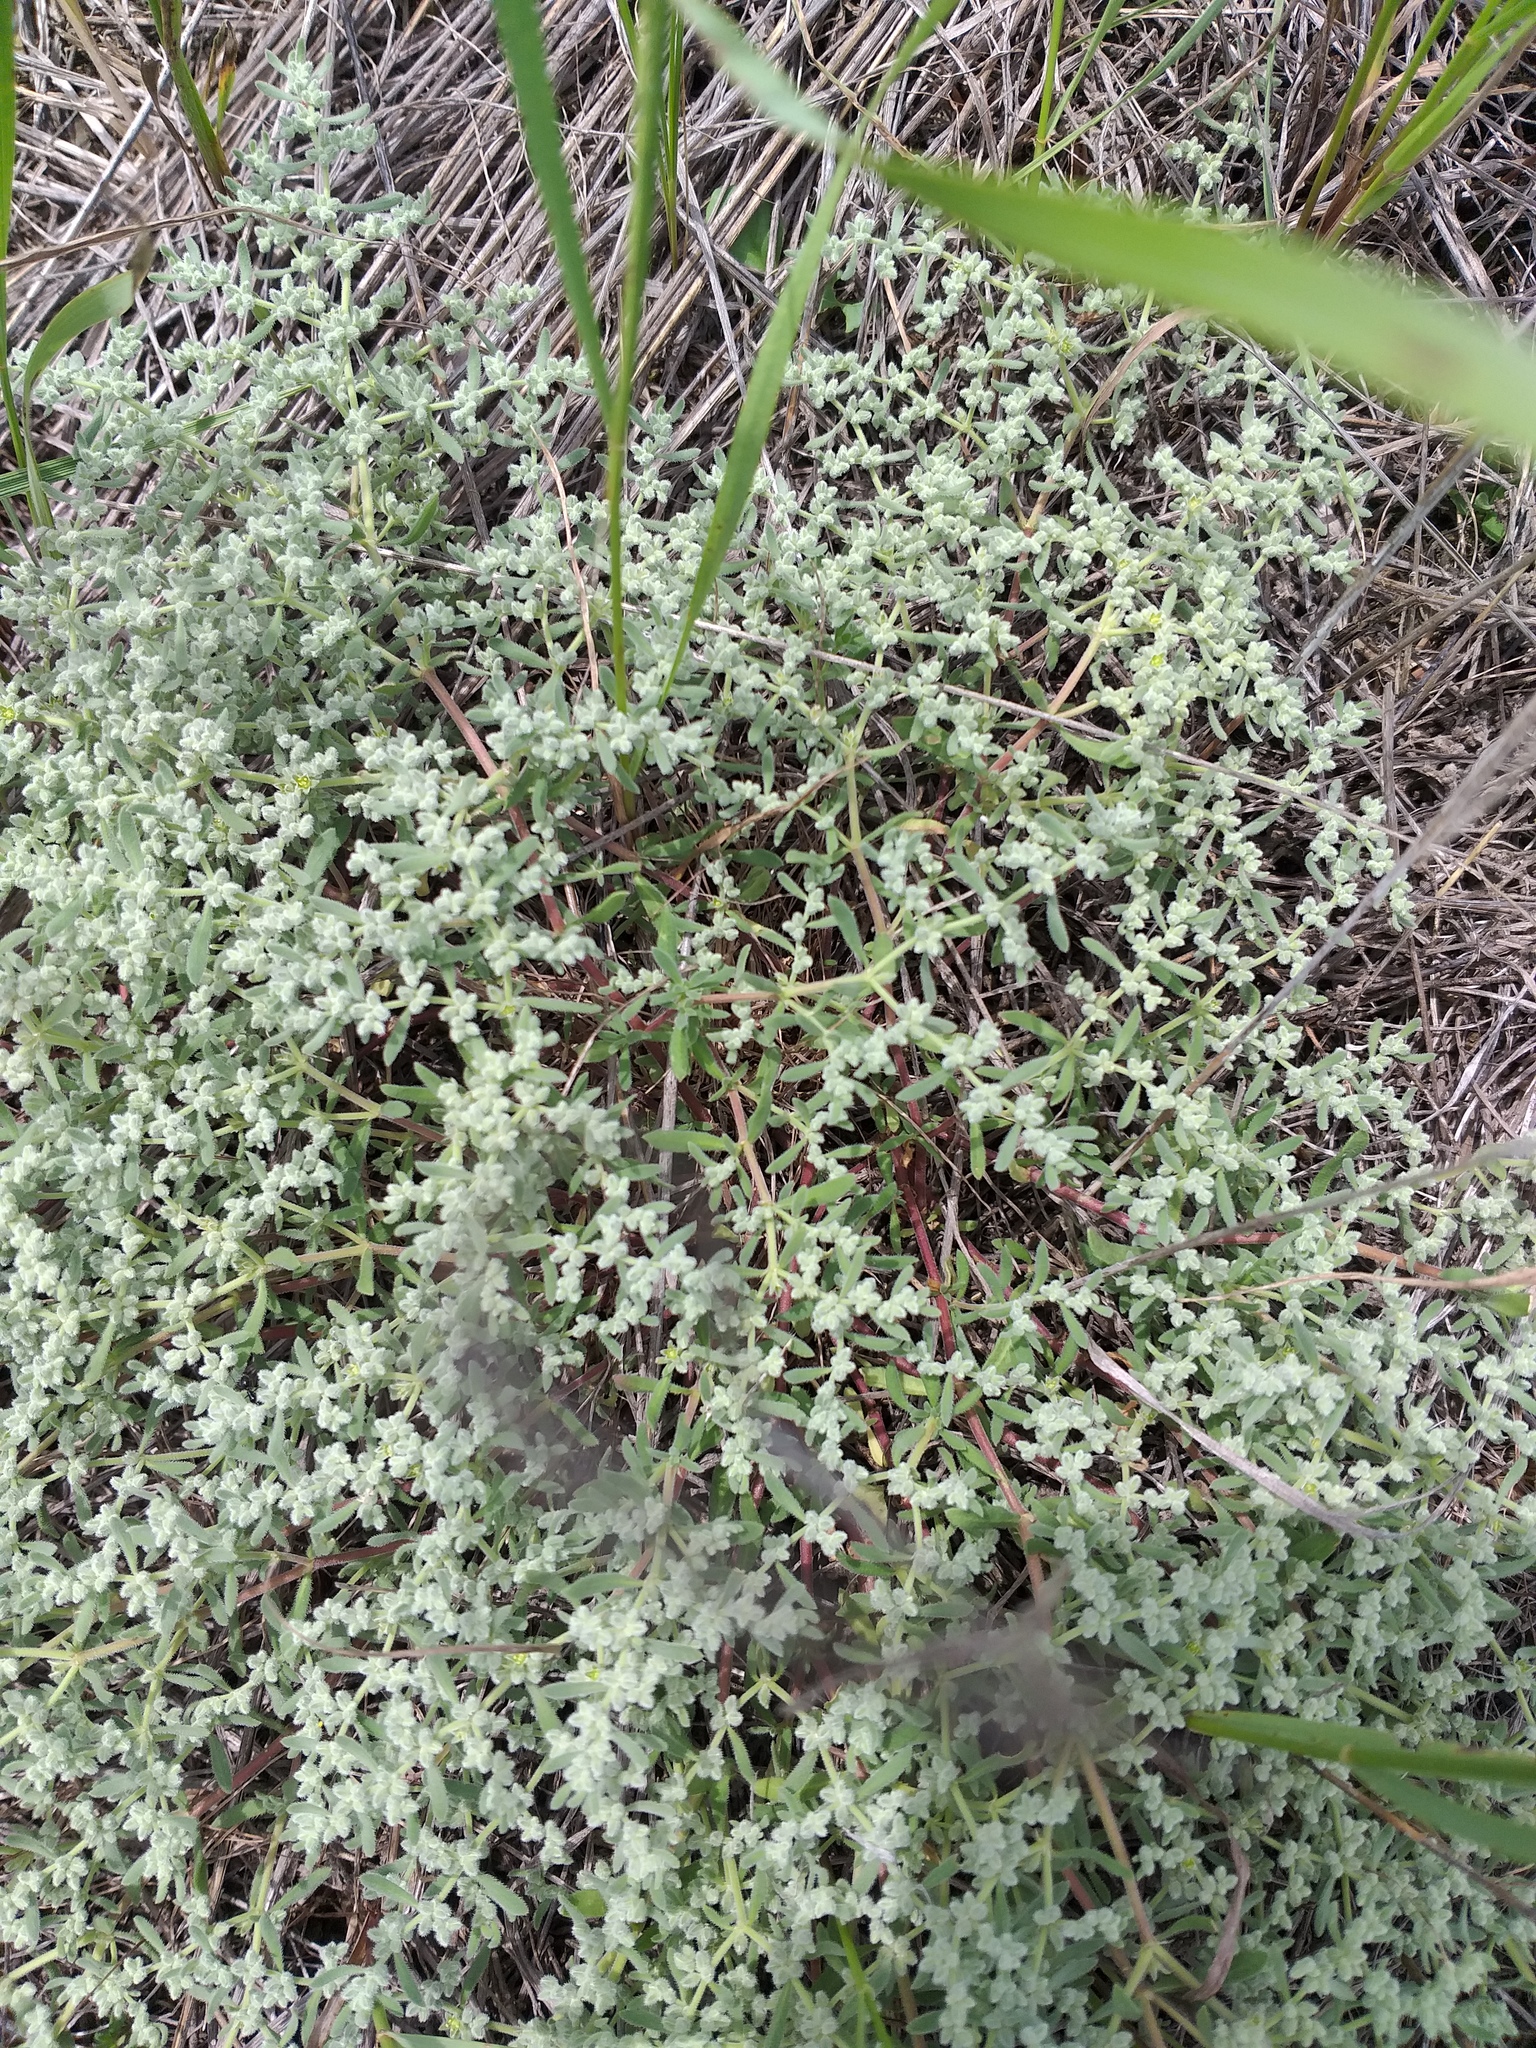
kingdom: Plantae
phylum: Tracheophyta
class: Magnoliopsida
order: Caryophyllales
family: Caryophyllaceae
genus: Herniaria
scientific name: Herniaria incana
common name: Gray rupturewort
